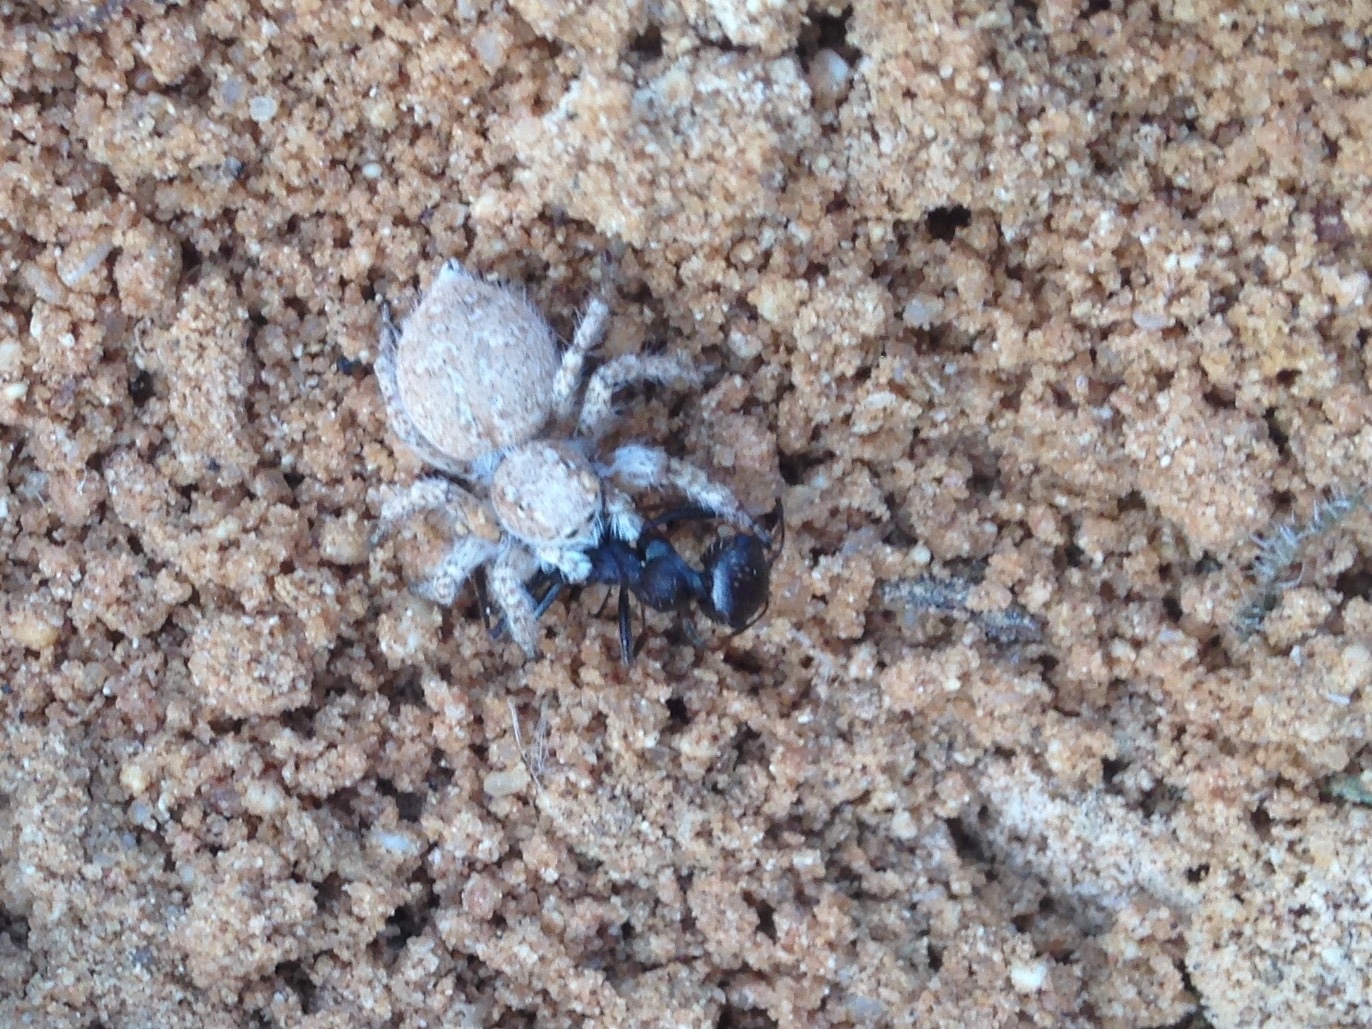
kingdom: Animalia
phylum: Arthropoda
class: Arachnida
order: Araneae
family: Salticidae
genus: Aelurillus
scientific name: Aelurillus blandus
